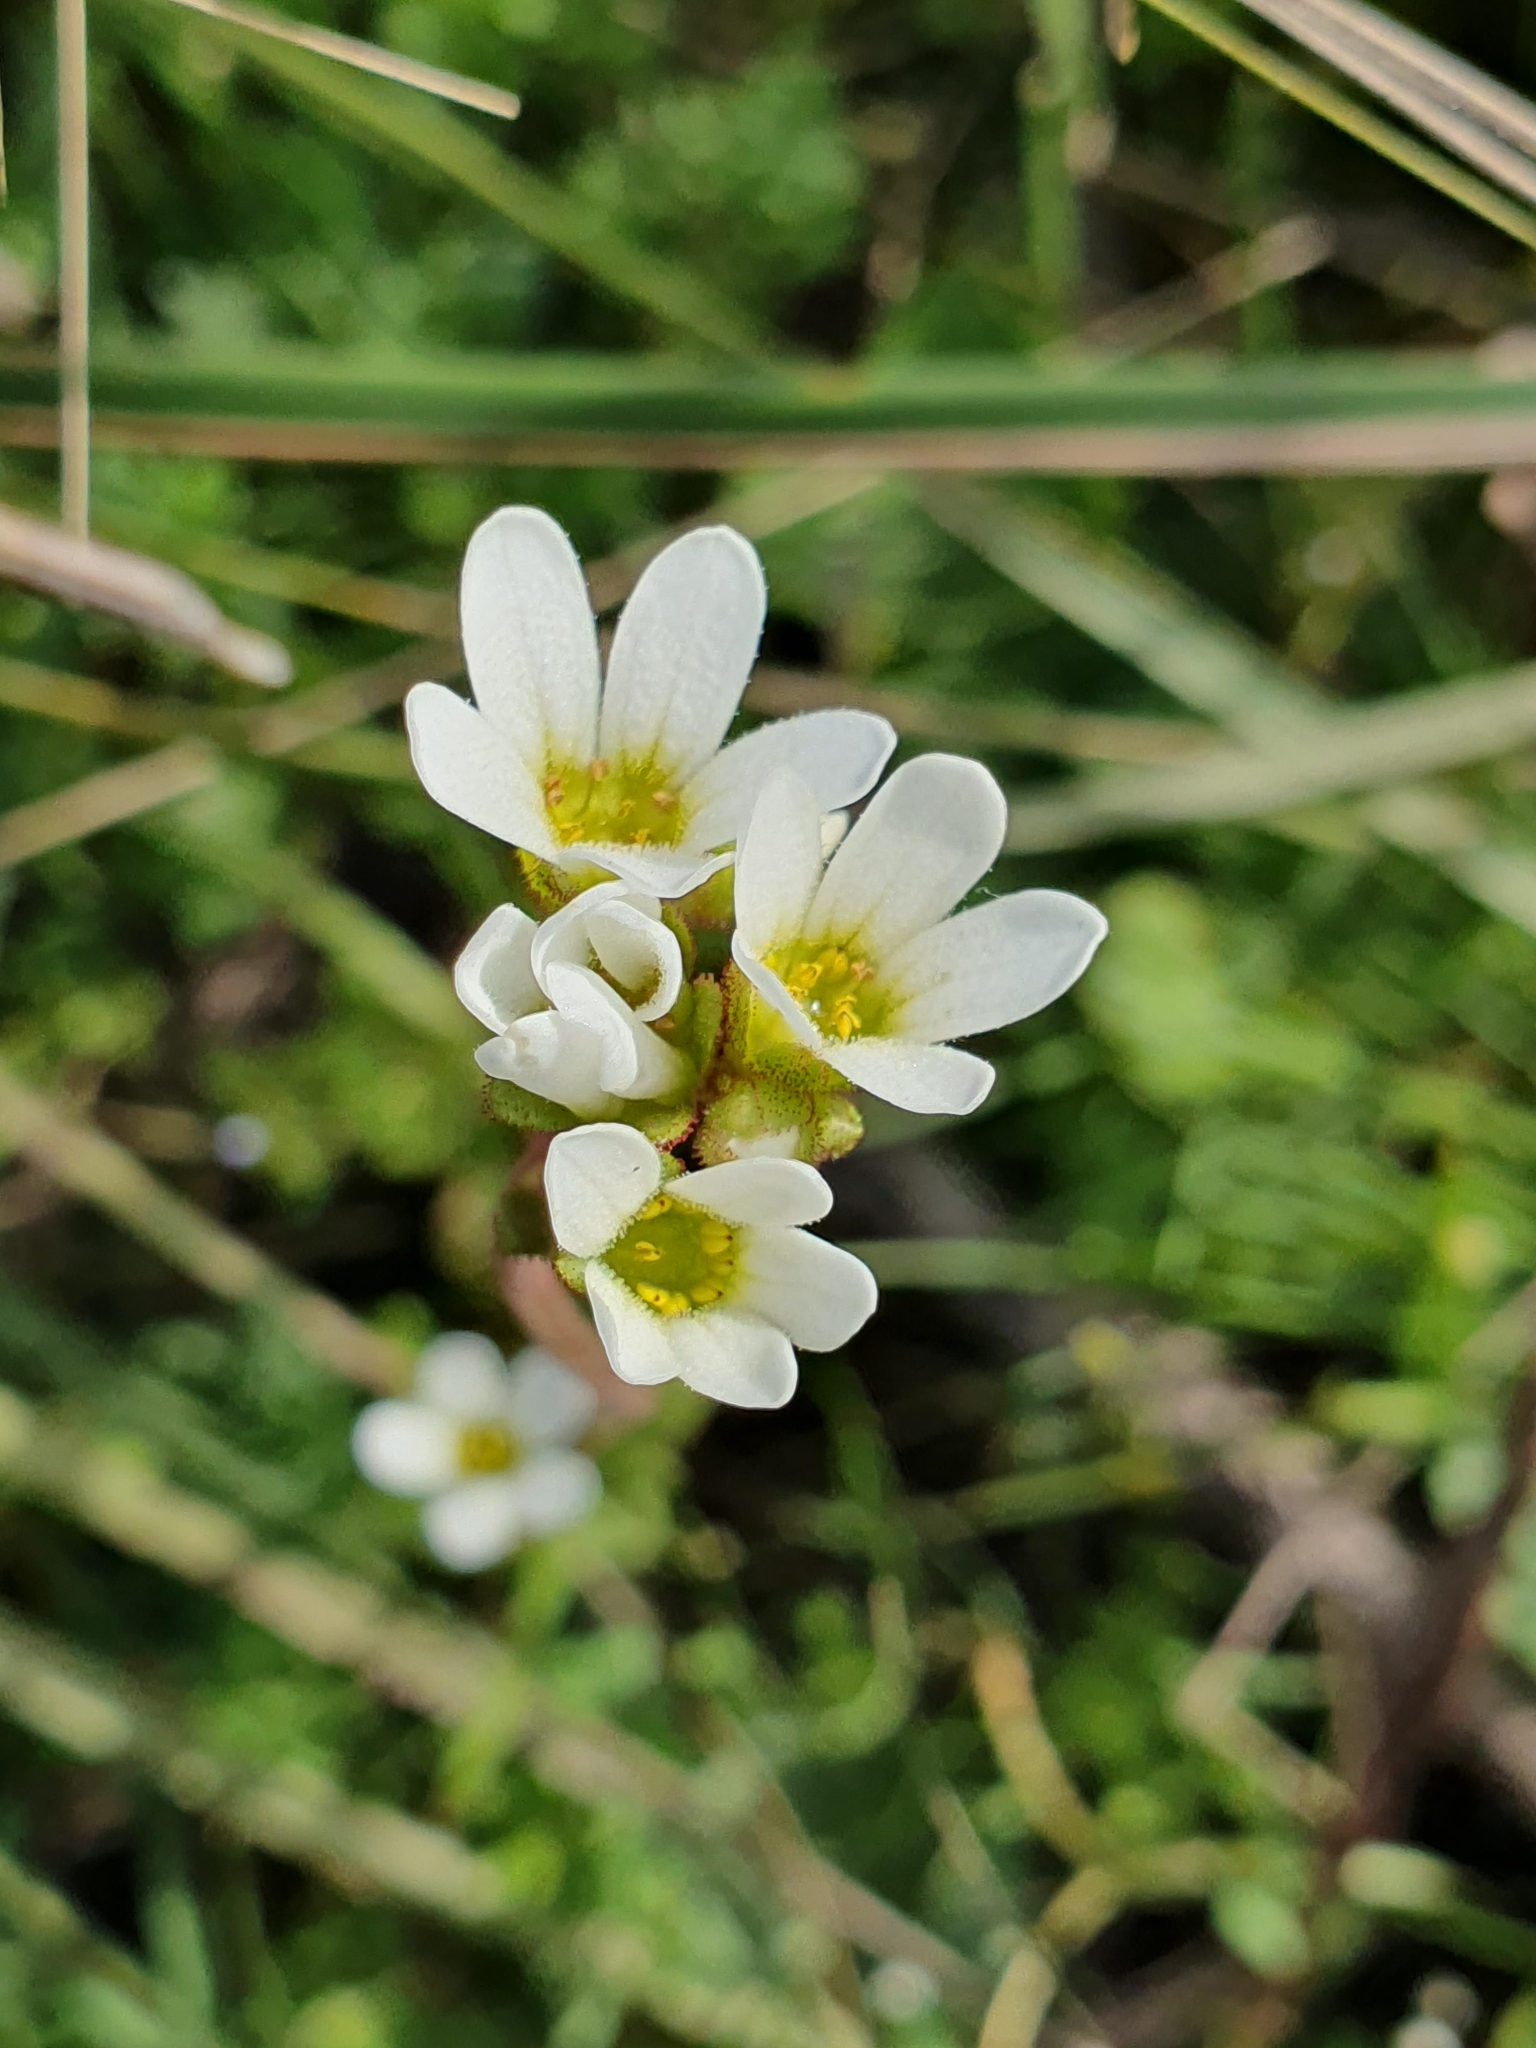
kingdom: Plantae
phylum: Tracheophyta
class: Magnoliopsida
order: Saxifragales
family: Saxifragaceae
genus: Saxifraga
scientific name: Saxifraga carpetana
